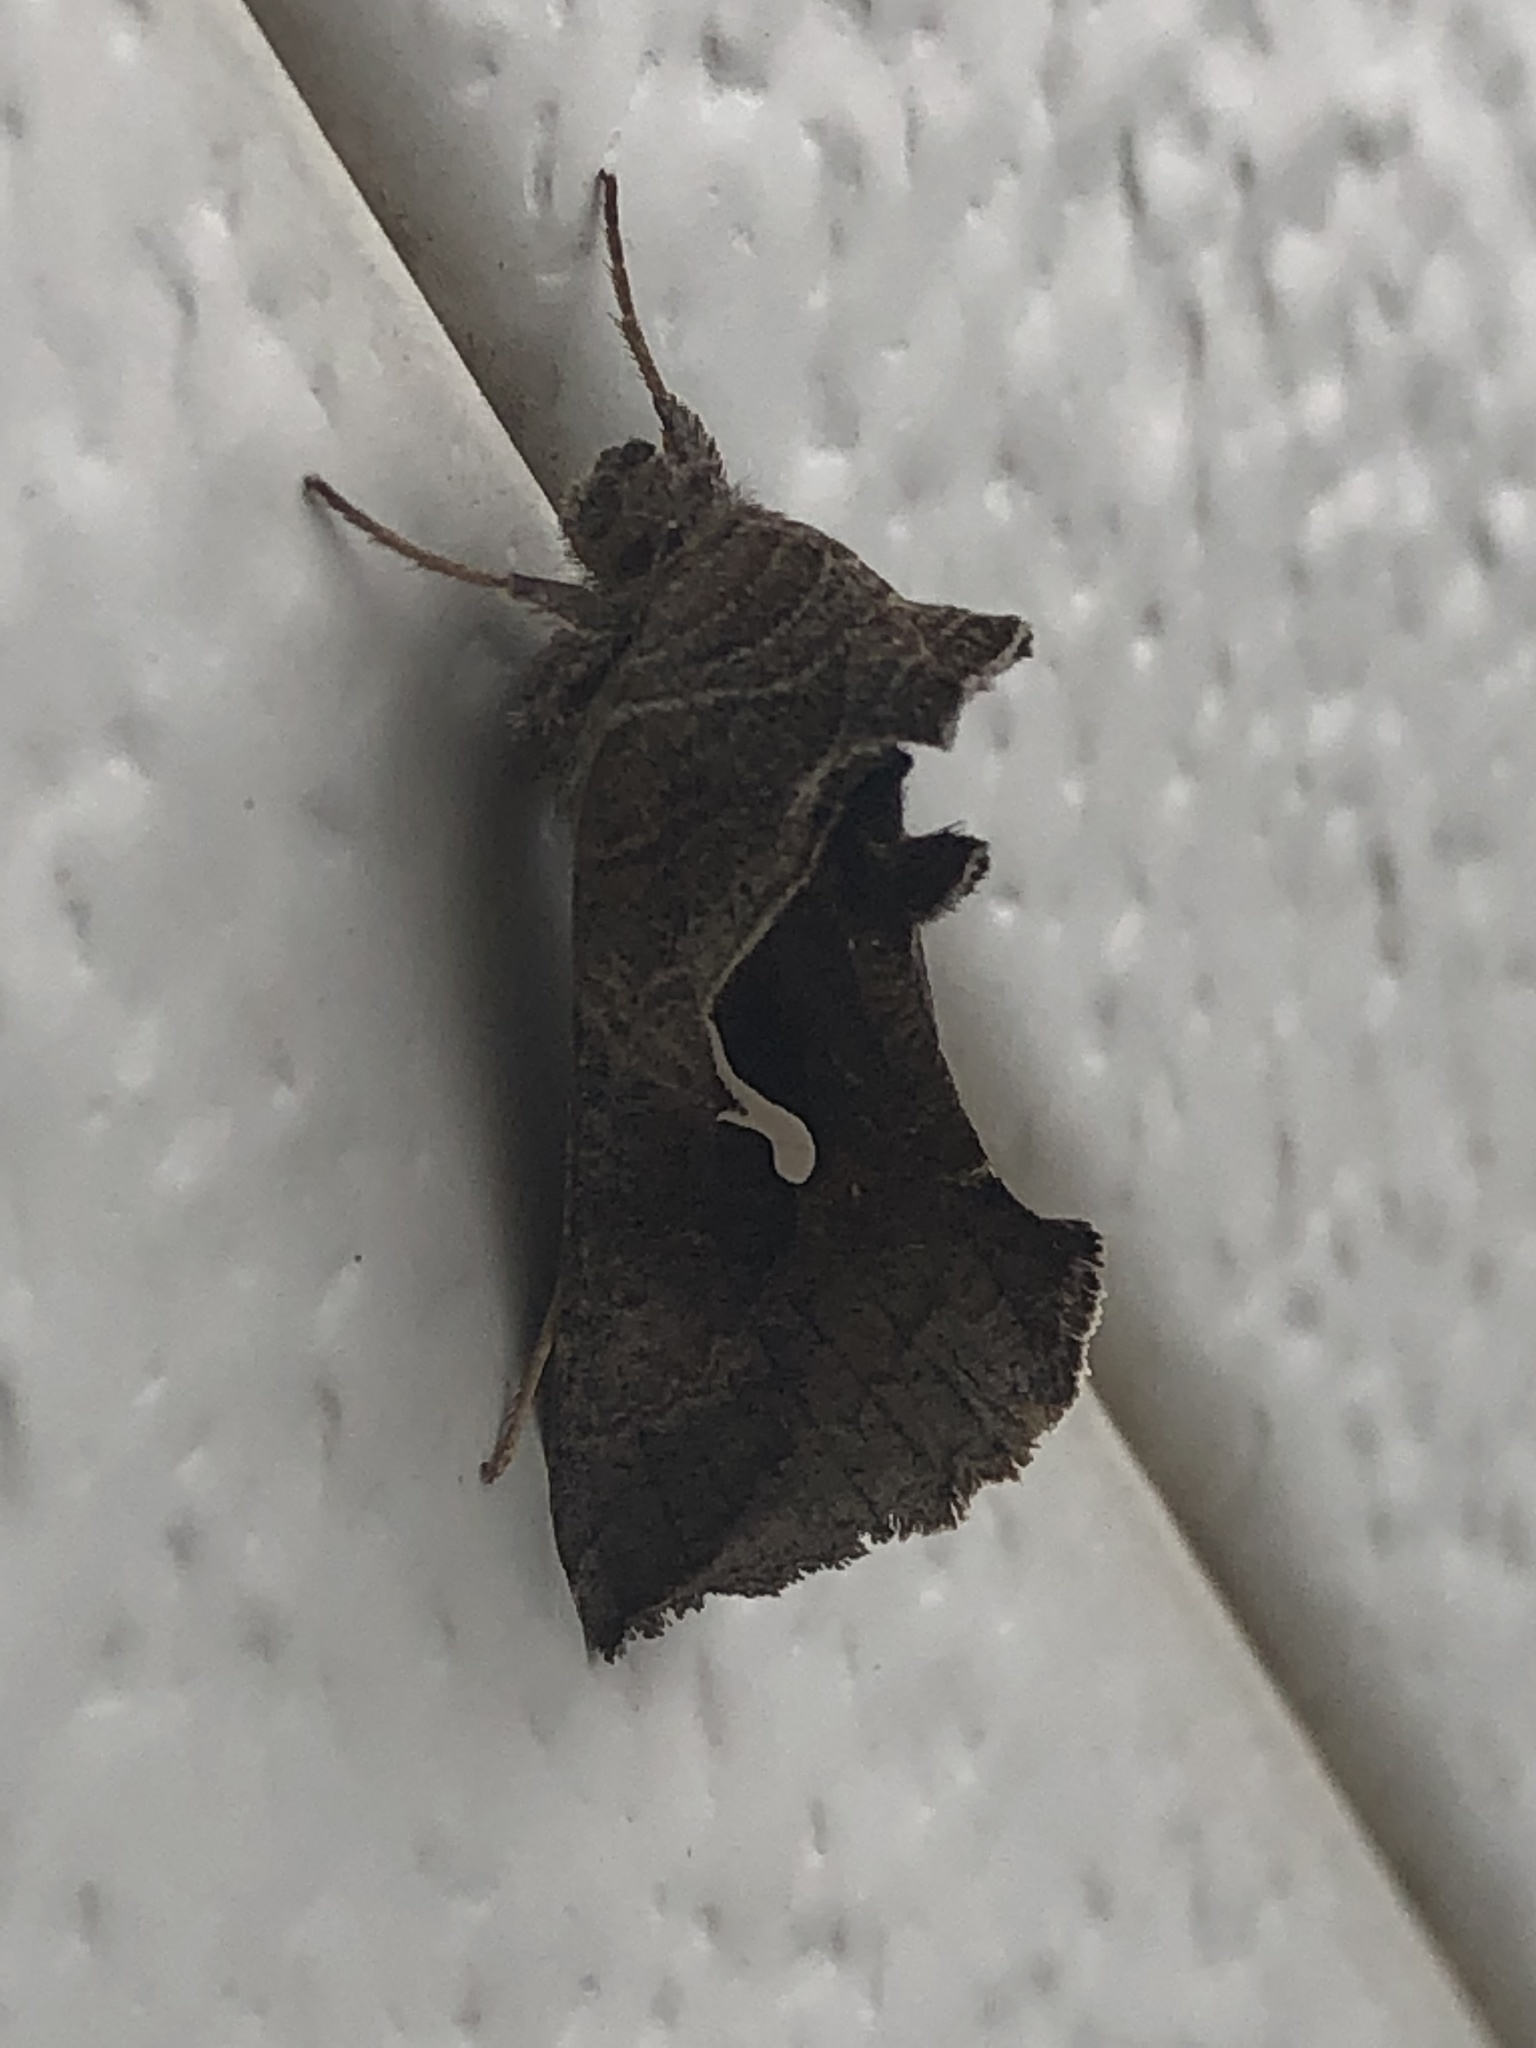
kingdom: Animalia
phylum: Arthropoda
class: Insecta
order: Lepidoptera
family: Noctuidae
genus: Anagrapha
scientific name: Anagrapha falcifera
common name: Celery looper
